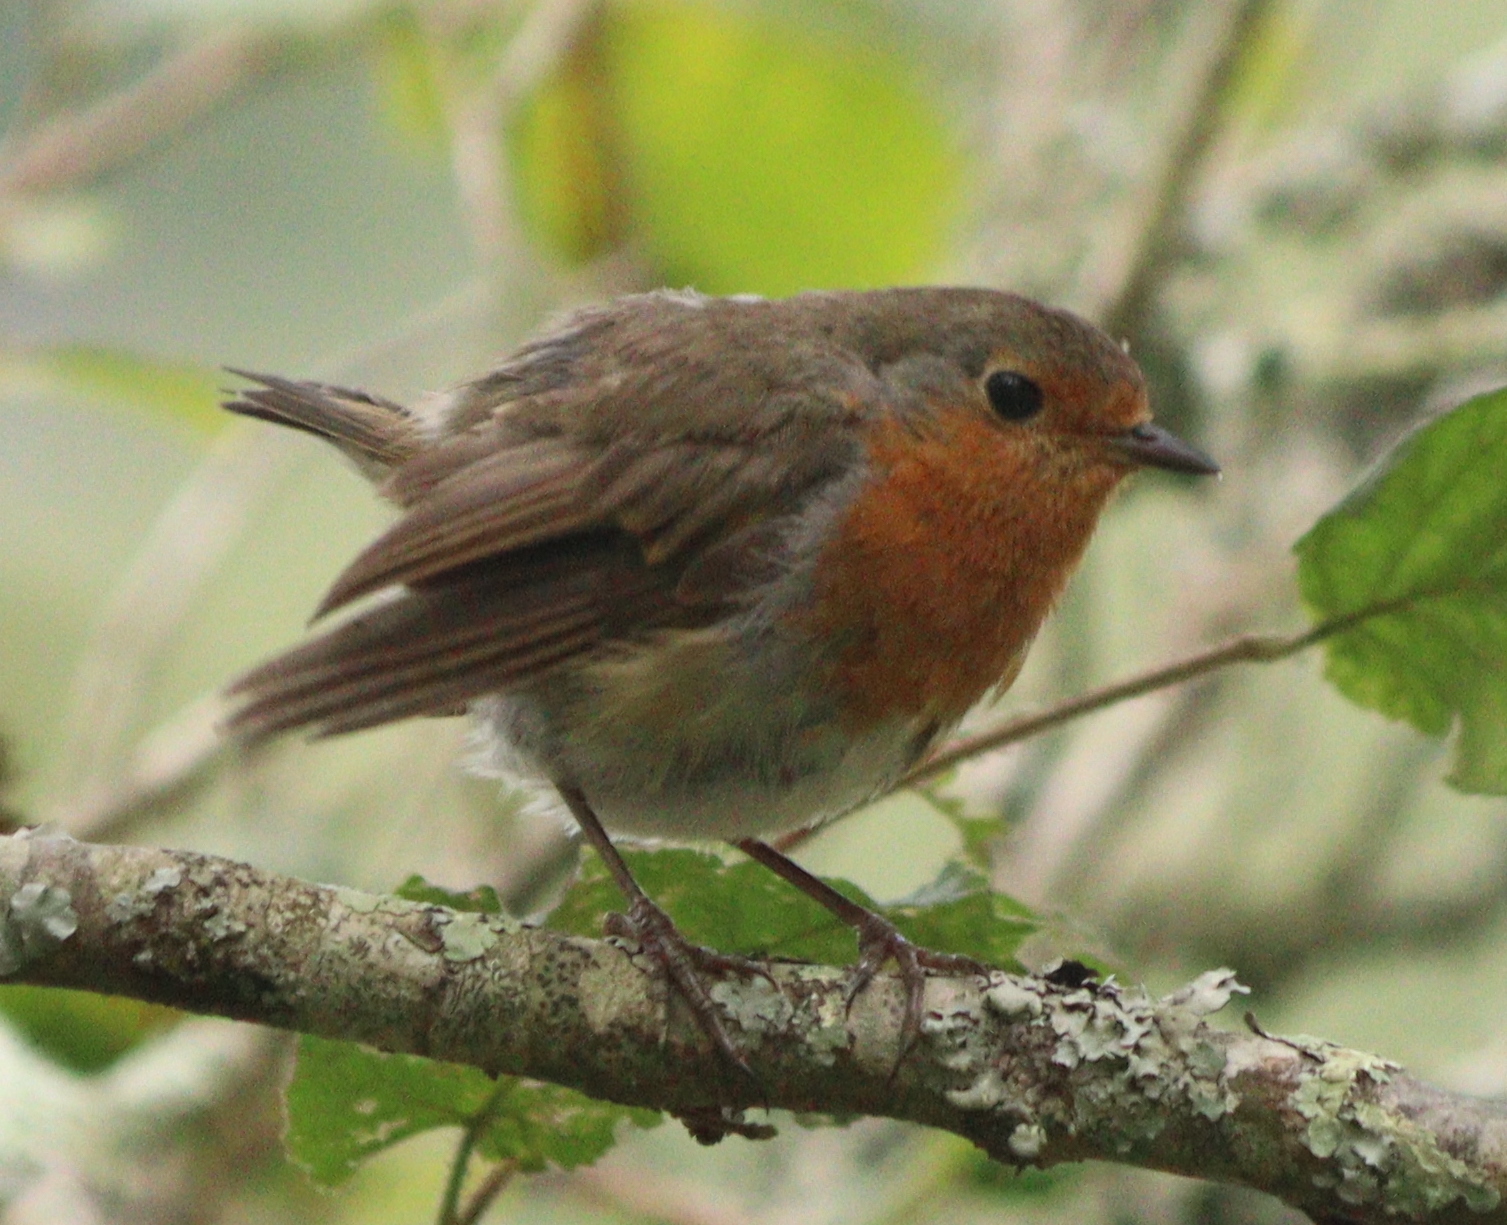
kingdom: Animalia
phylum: Chordata
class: Aves
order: Passeriformes
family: Muscicapidae
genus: Erithacus
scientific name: Erithacus rubecula
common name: European robin
